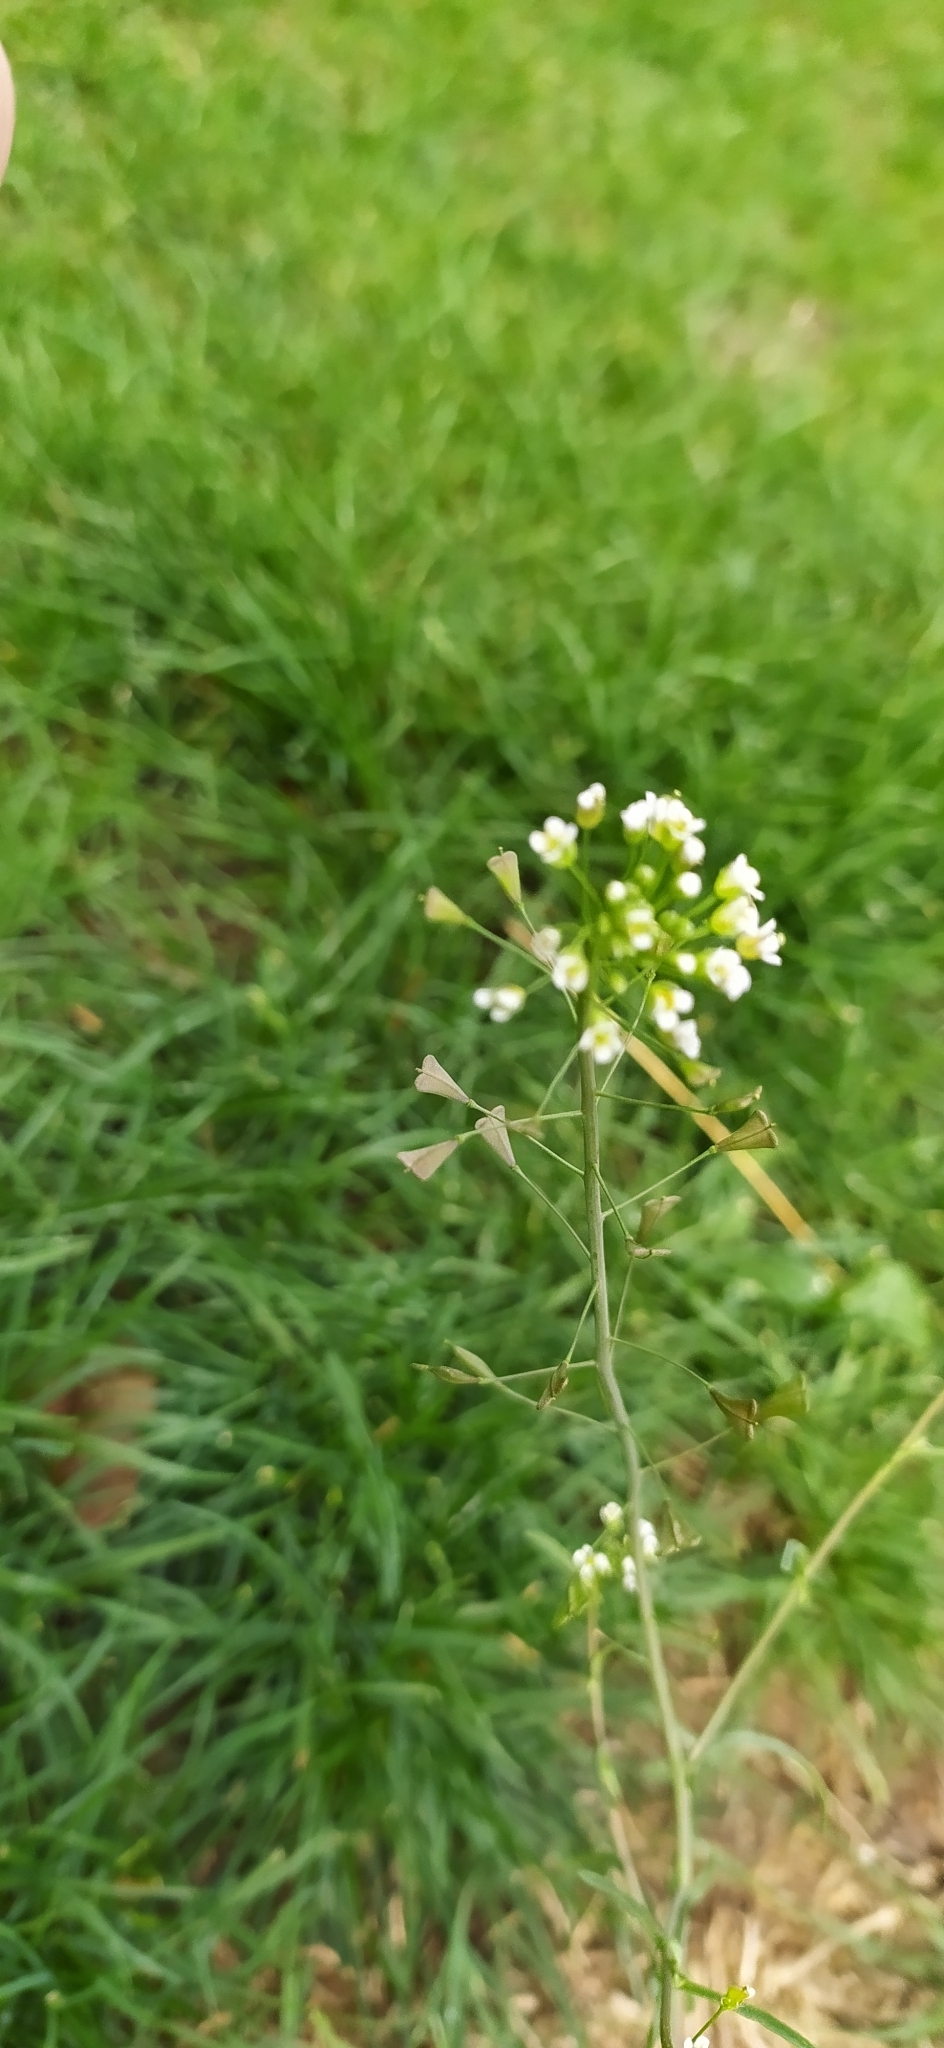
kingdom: Plantae
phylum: Tracheophyta
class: Magnoliopsida
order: Brassicales
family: Brassicaceae
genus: Capsella
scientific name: Capsella bursa-pastoris
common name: Shepherd's purse
